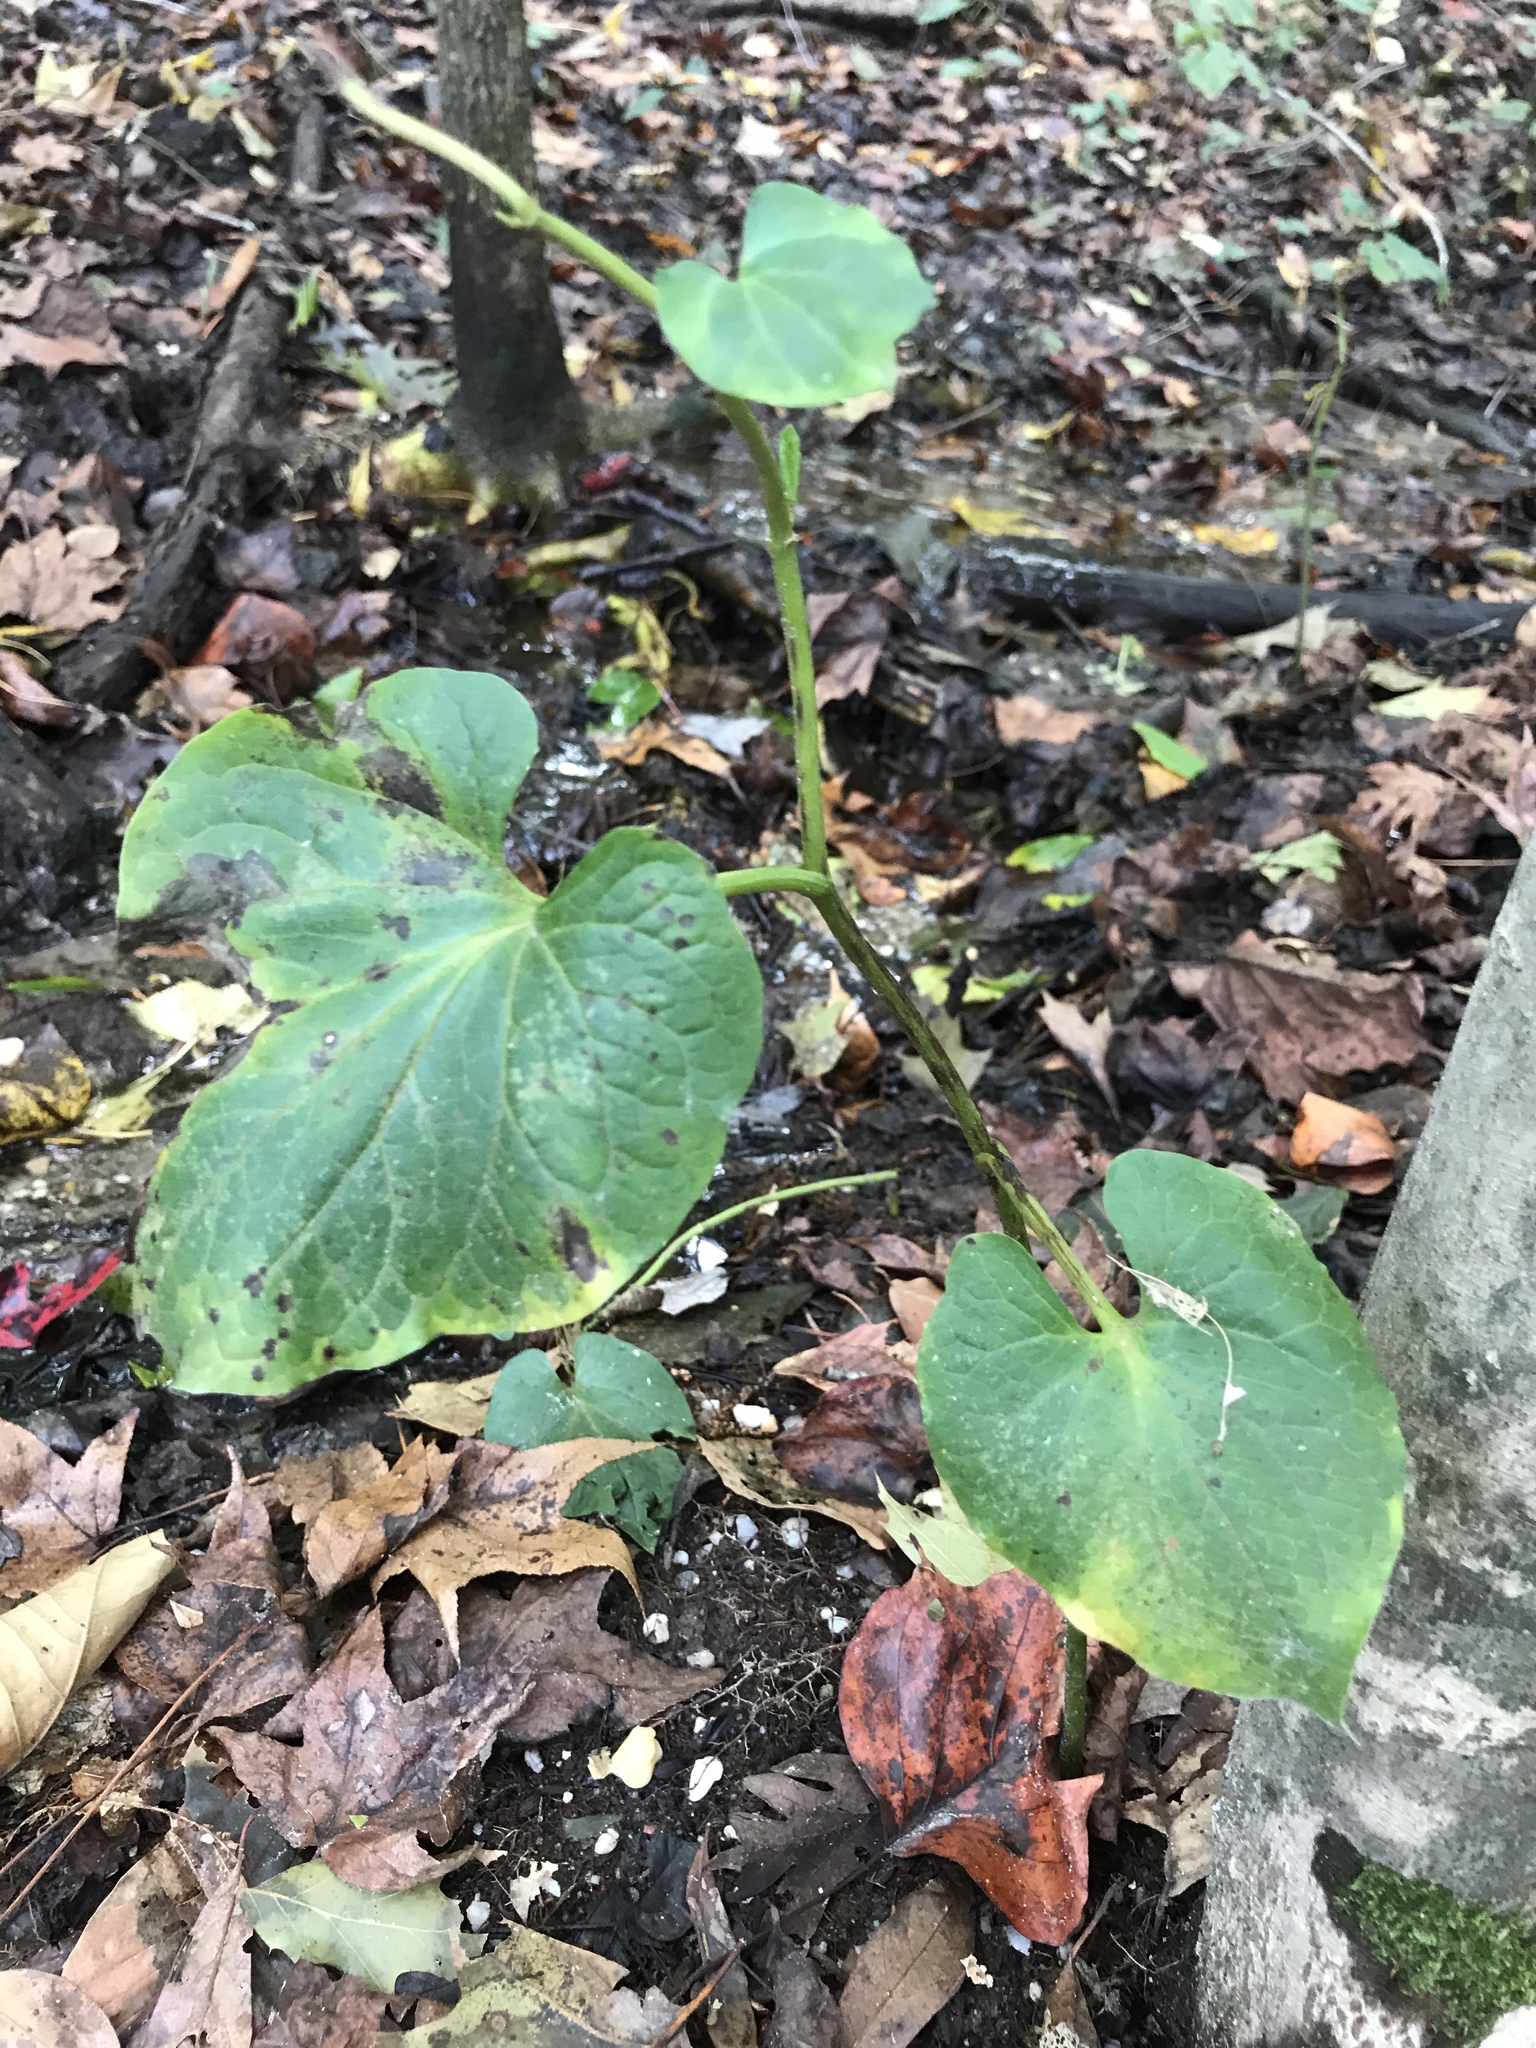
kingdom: Plantae
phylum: Tracheophyta
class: Magnoliopsida
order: Piperales
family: Saururaceae
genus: Saururus
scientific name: Saururus cernuus
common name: Lizard's-tail
